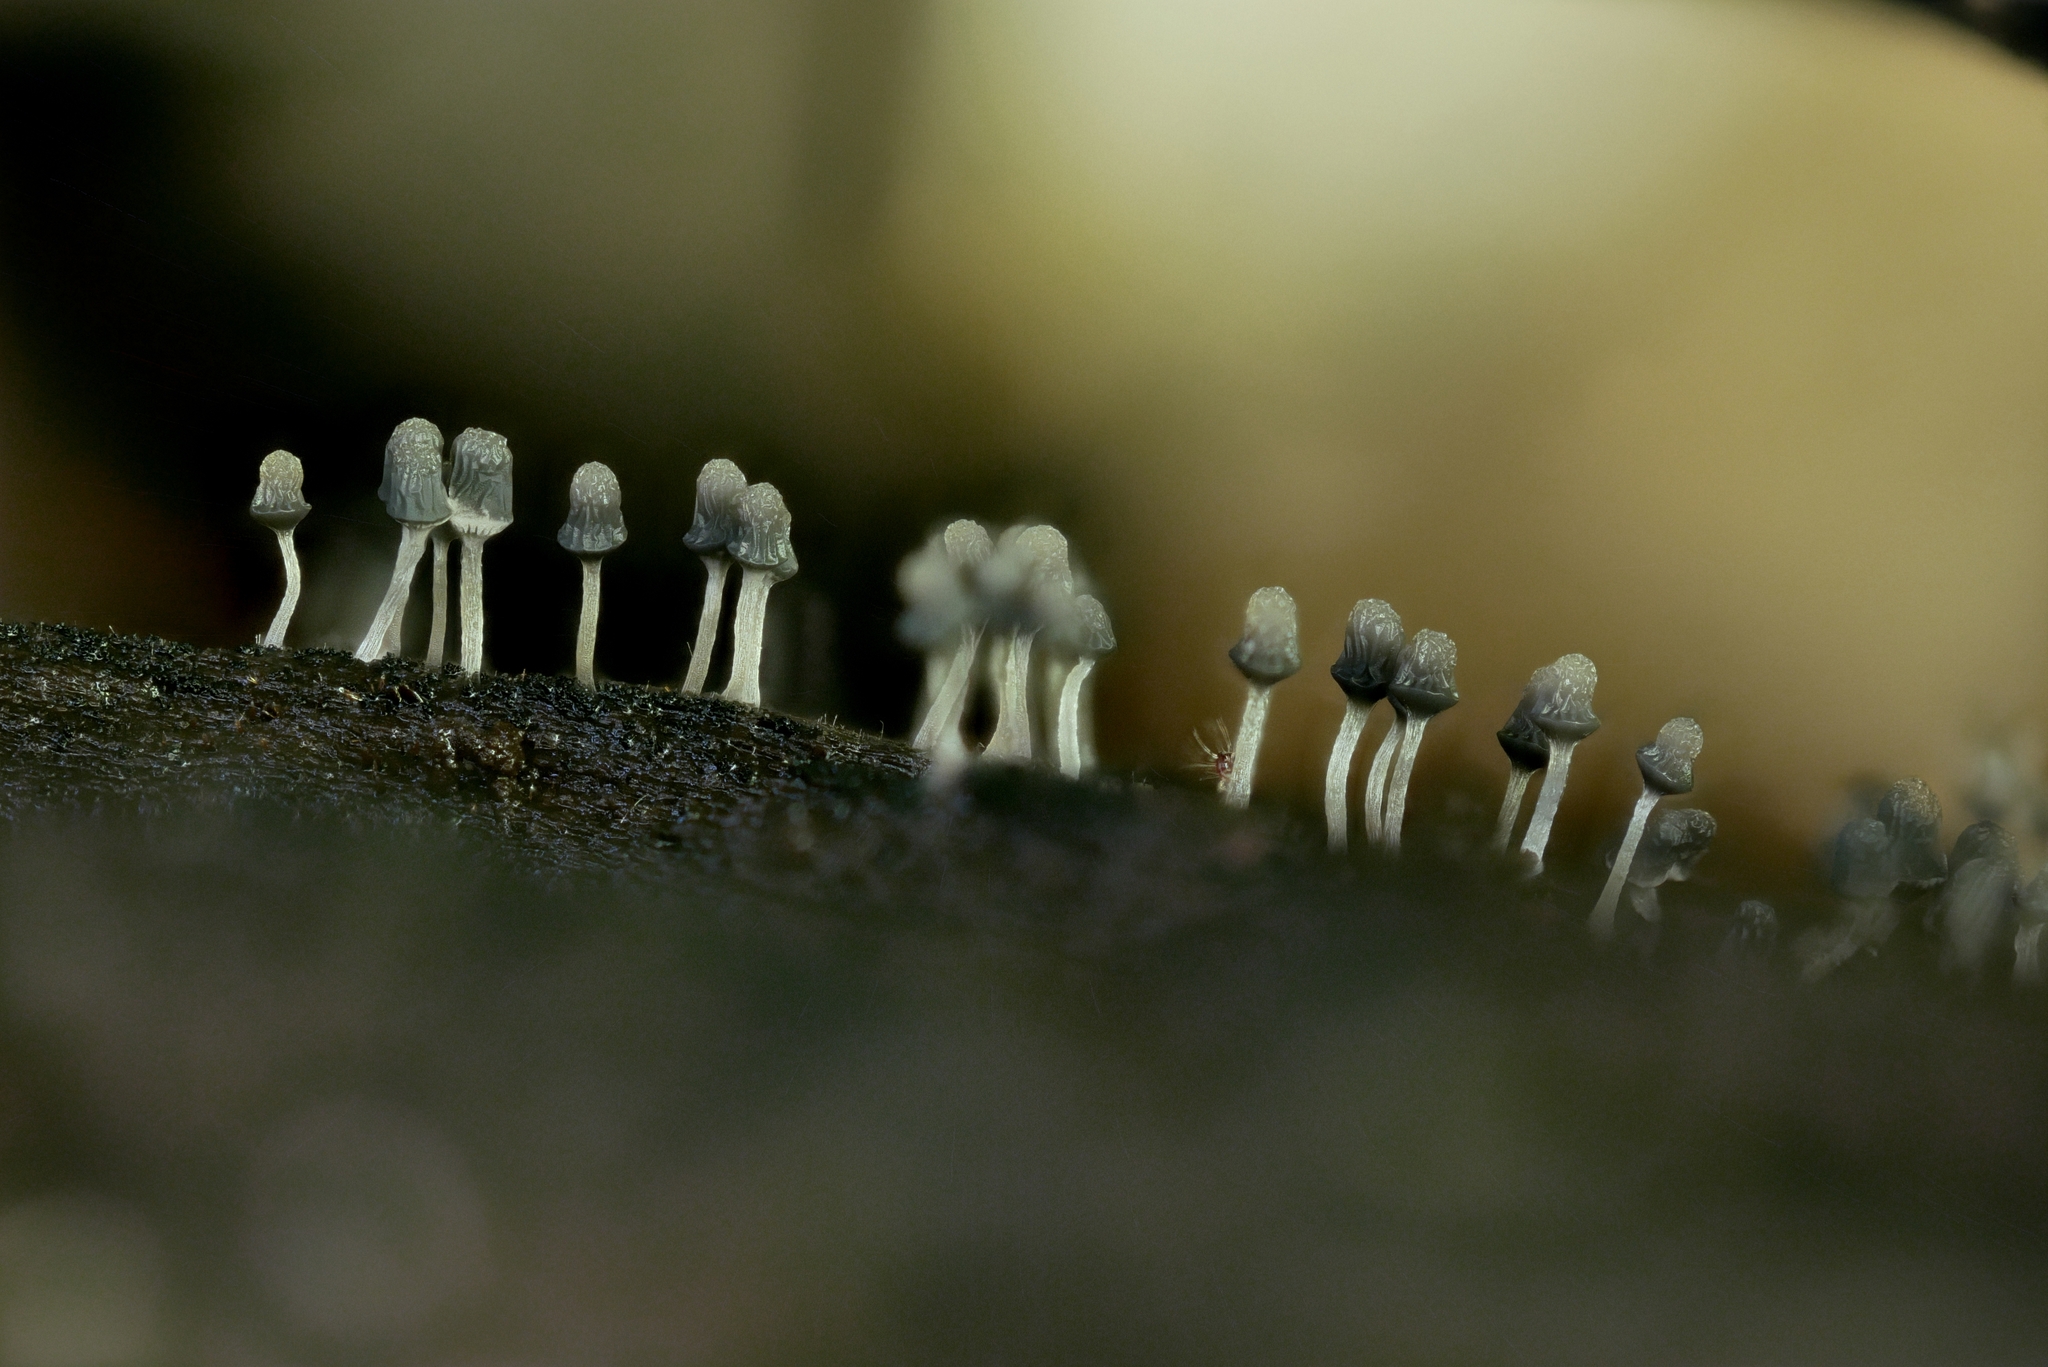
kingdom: Protozoa
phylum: Mycetozoa
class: Myxomycetes
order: Trichiales
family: Arcyriaceae
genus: Arcyria
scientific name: Arcyria cinerea
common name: White carnival candy slime mold
